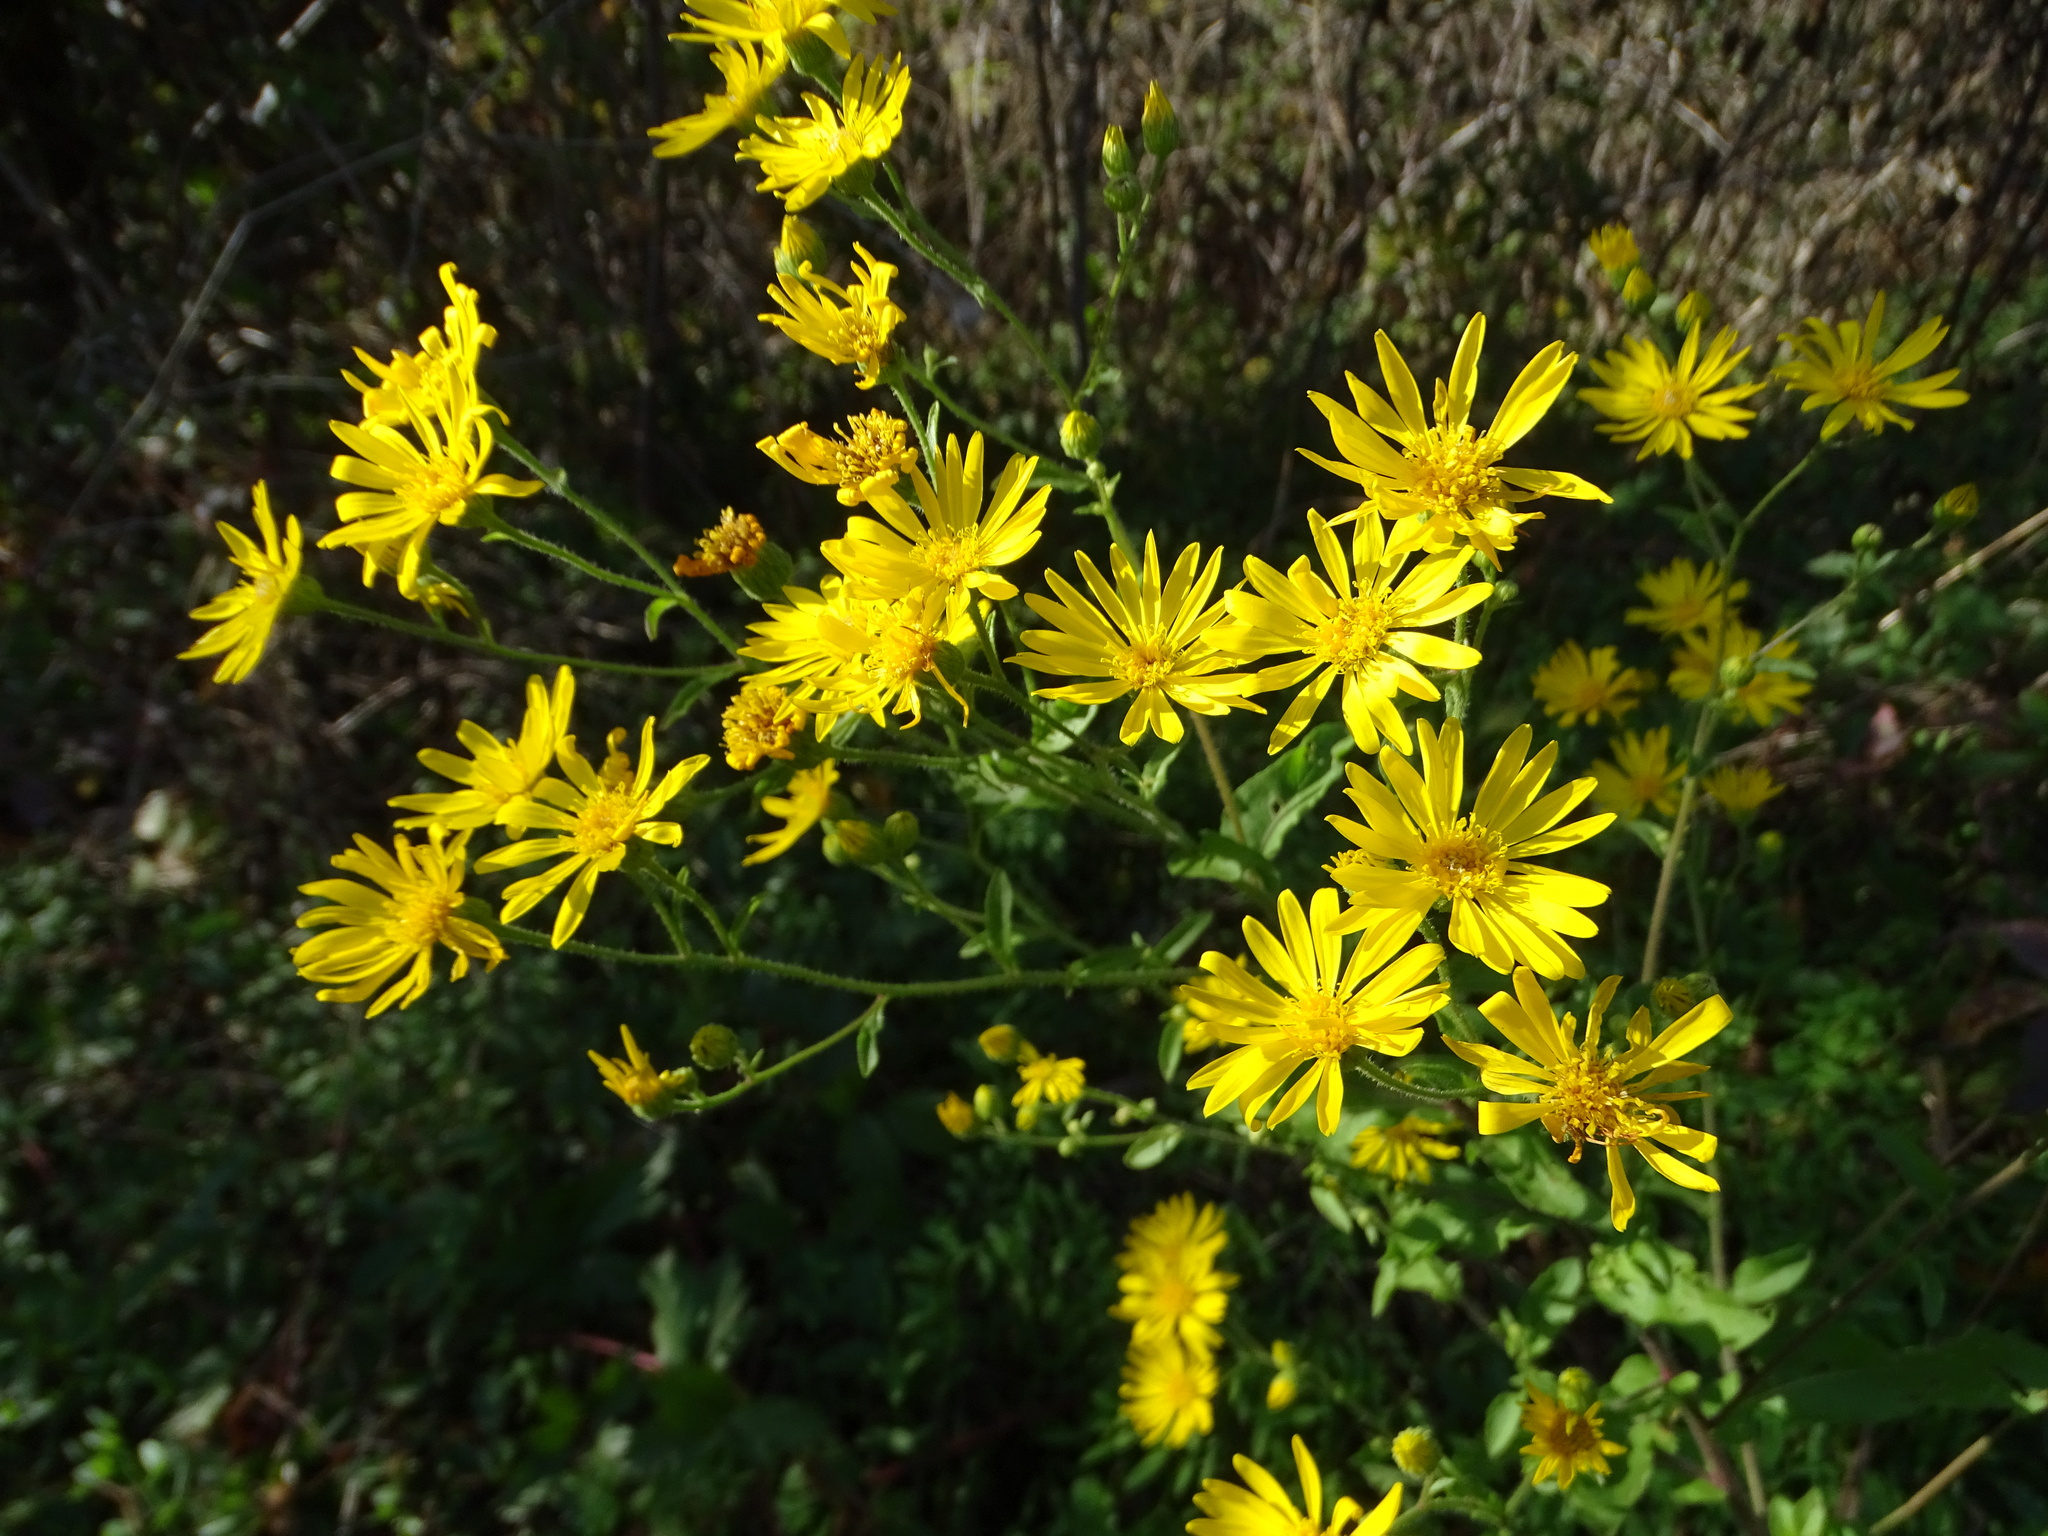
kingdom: Plantae
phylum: Tracheophyta
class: Magnoliopsida
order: Asterales
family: Asteraceae
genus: Heterotheca
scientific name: Heterotheca subaxillaris
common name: Camphorweed
